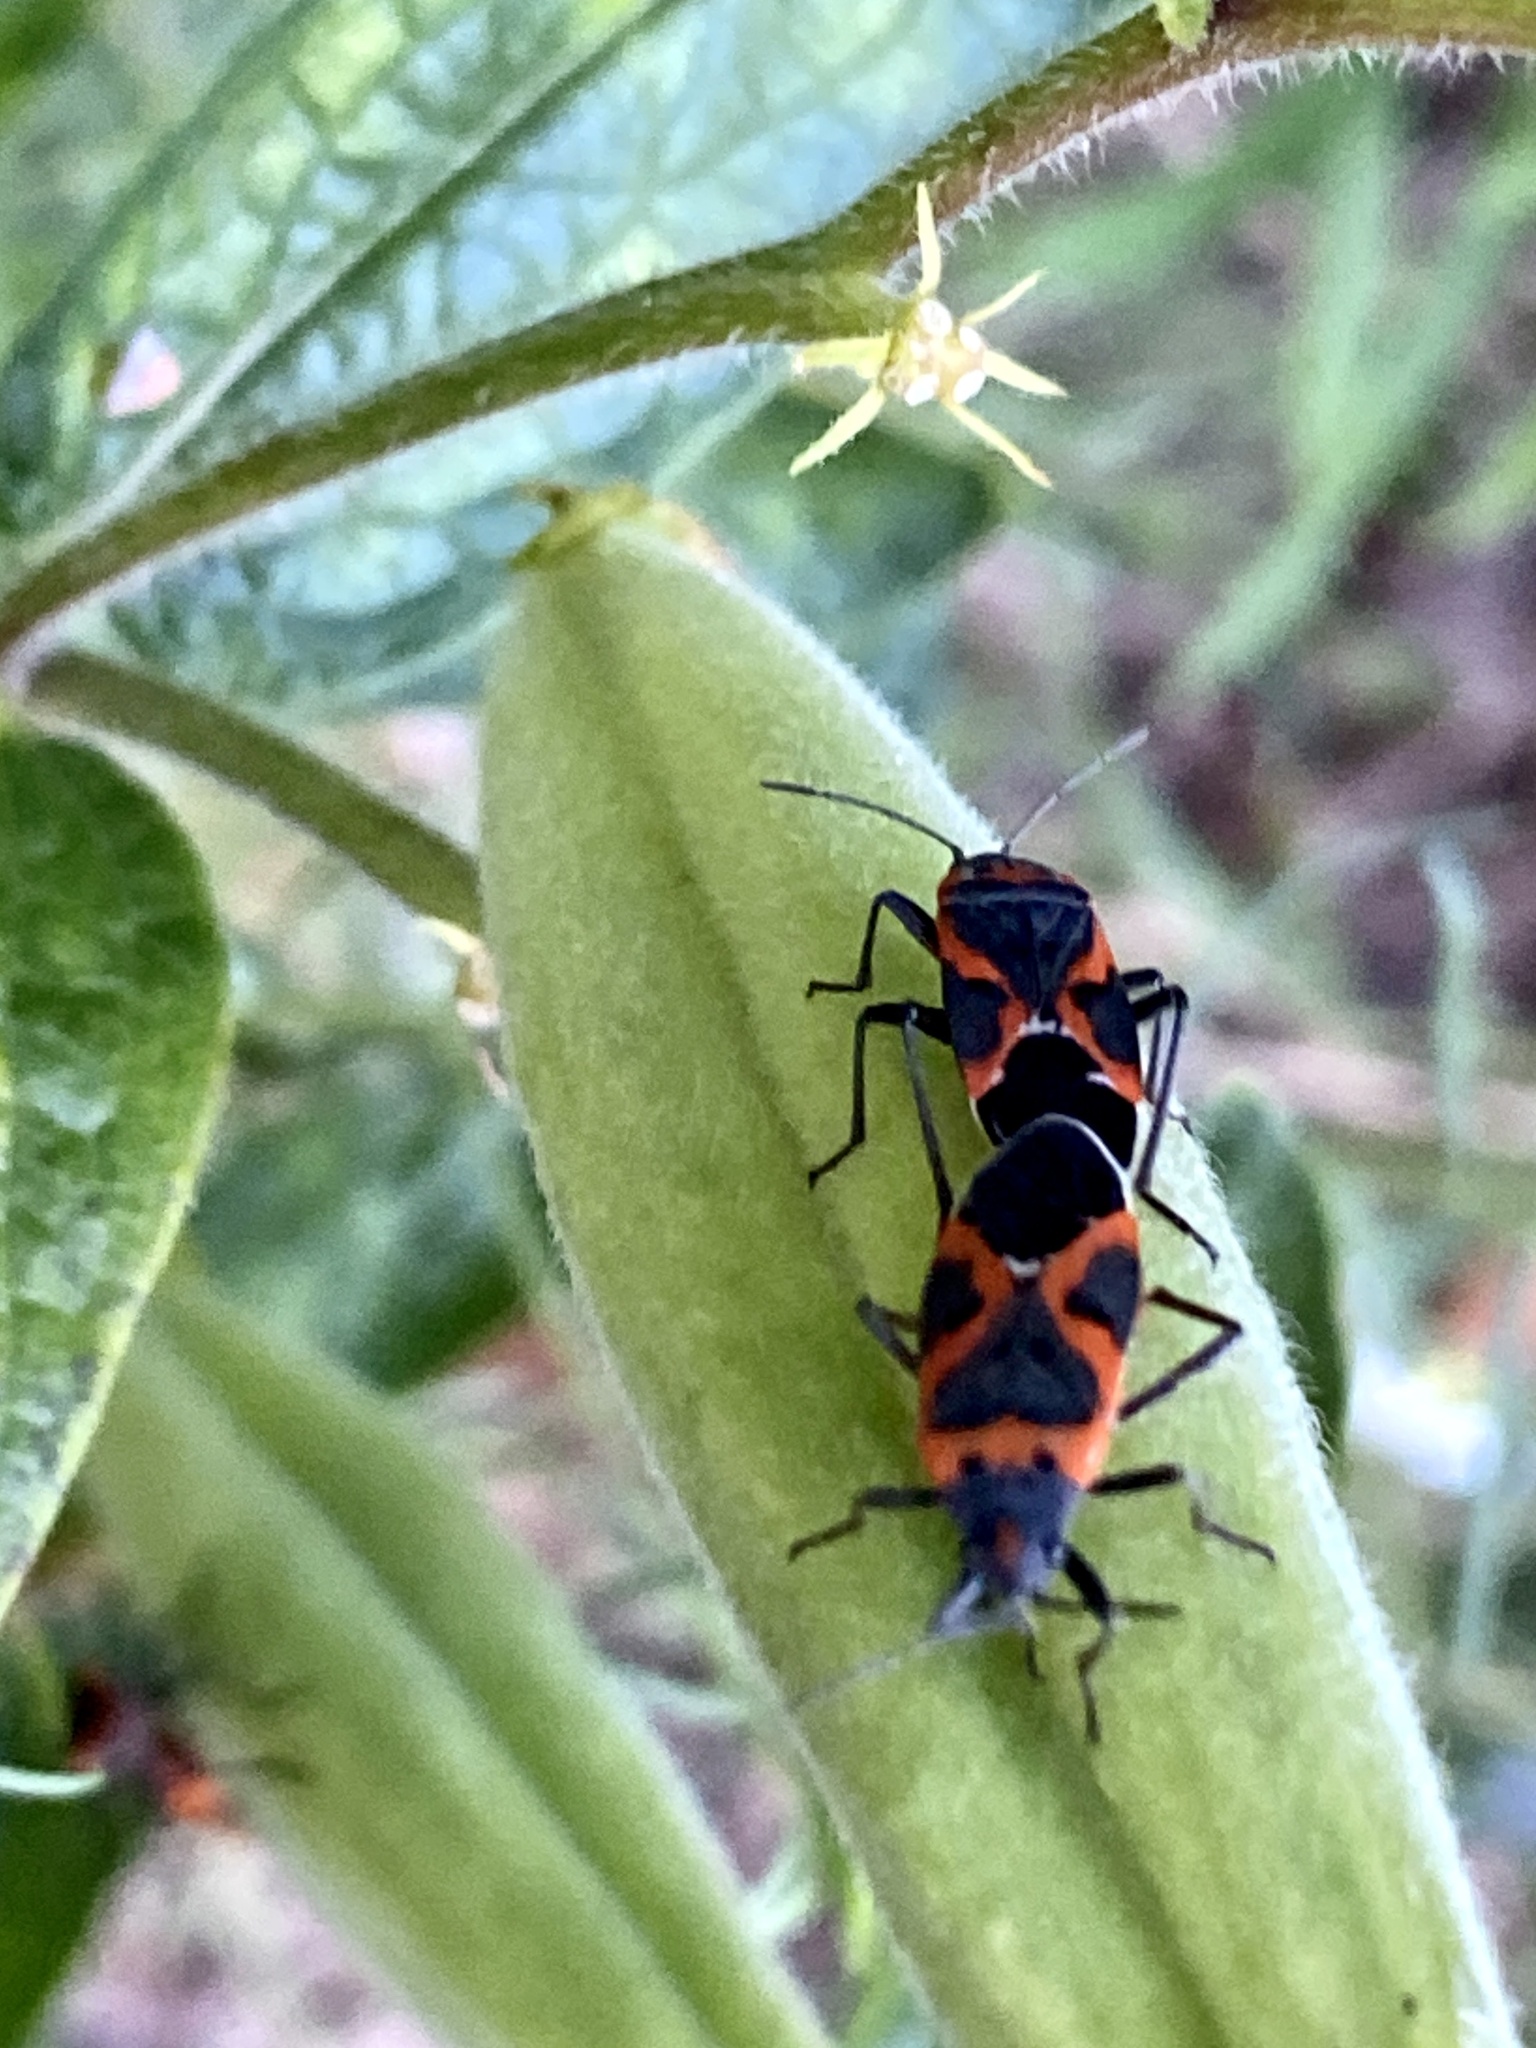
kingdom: Animalia
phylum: Arthropoda
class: Insecta
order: Hemiptera
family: Lygaeidae
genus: Lygaeus
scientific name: Lygaeus kalmii
